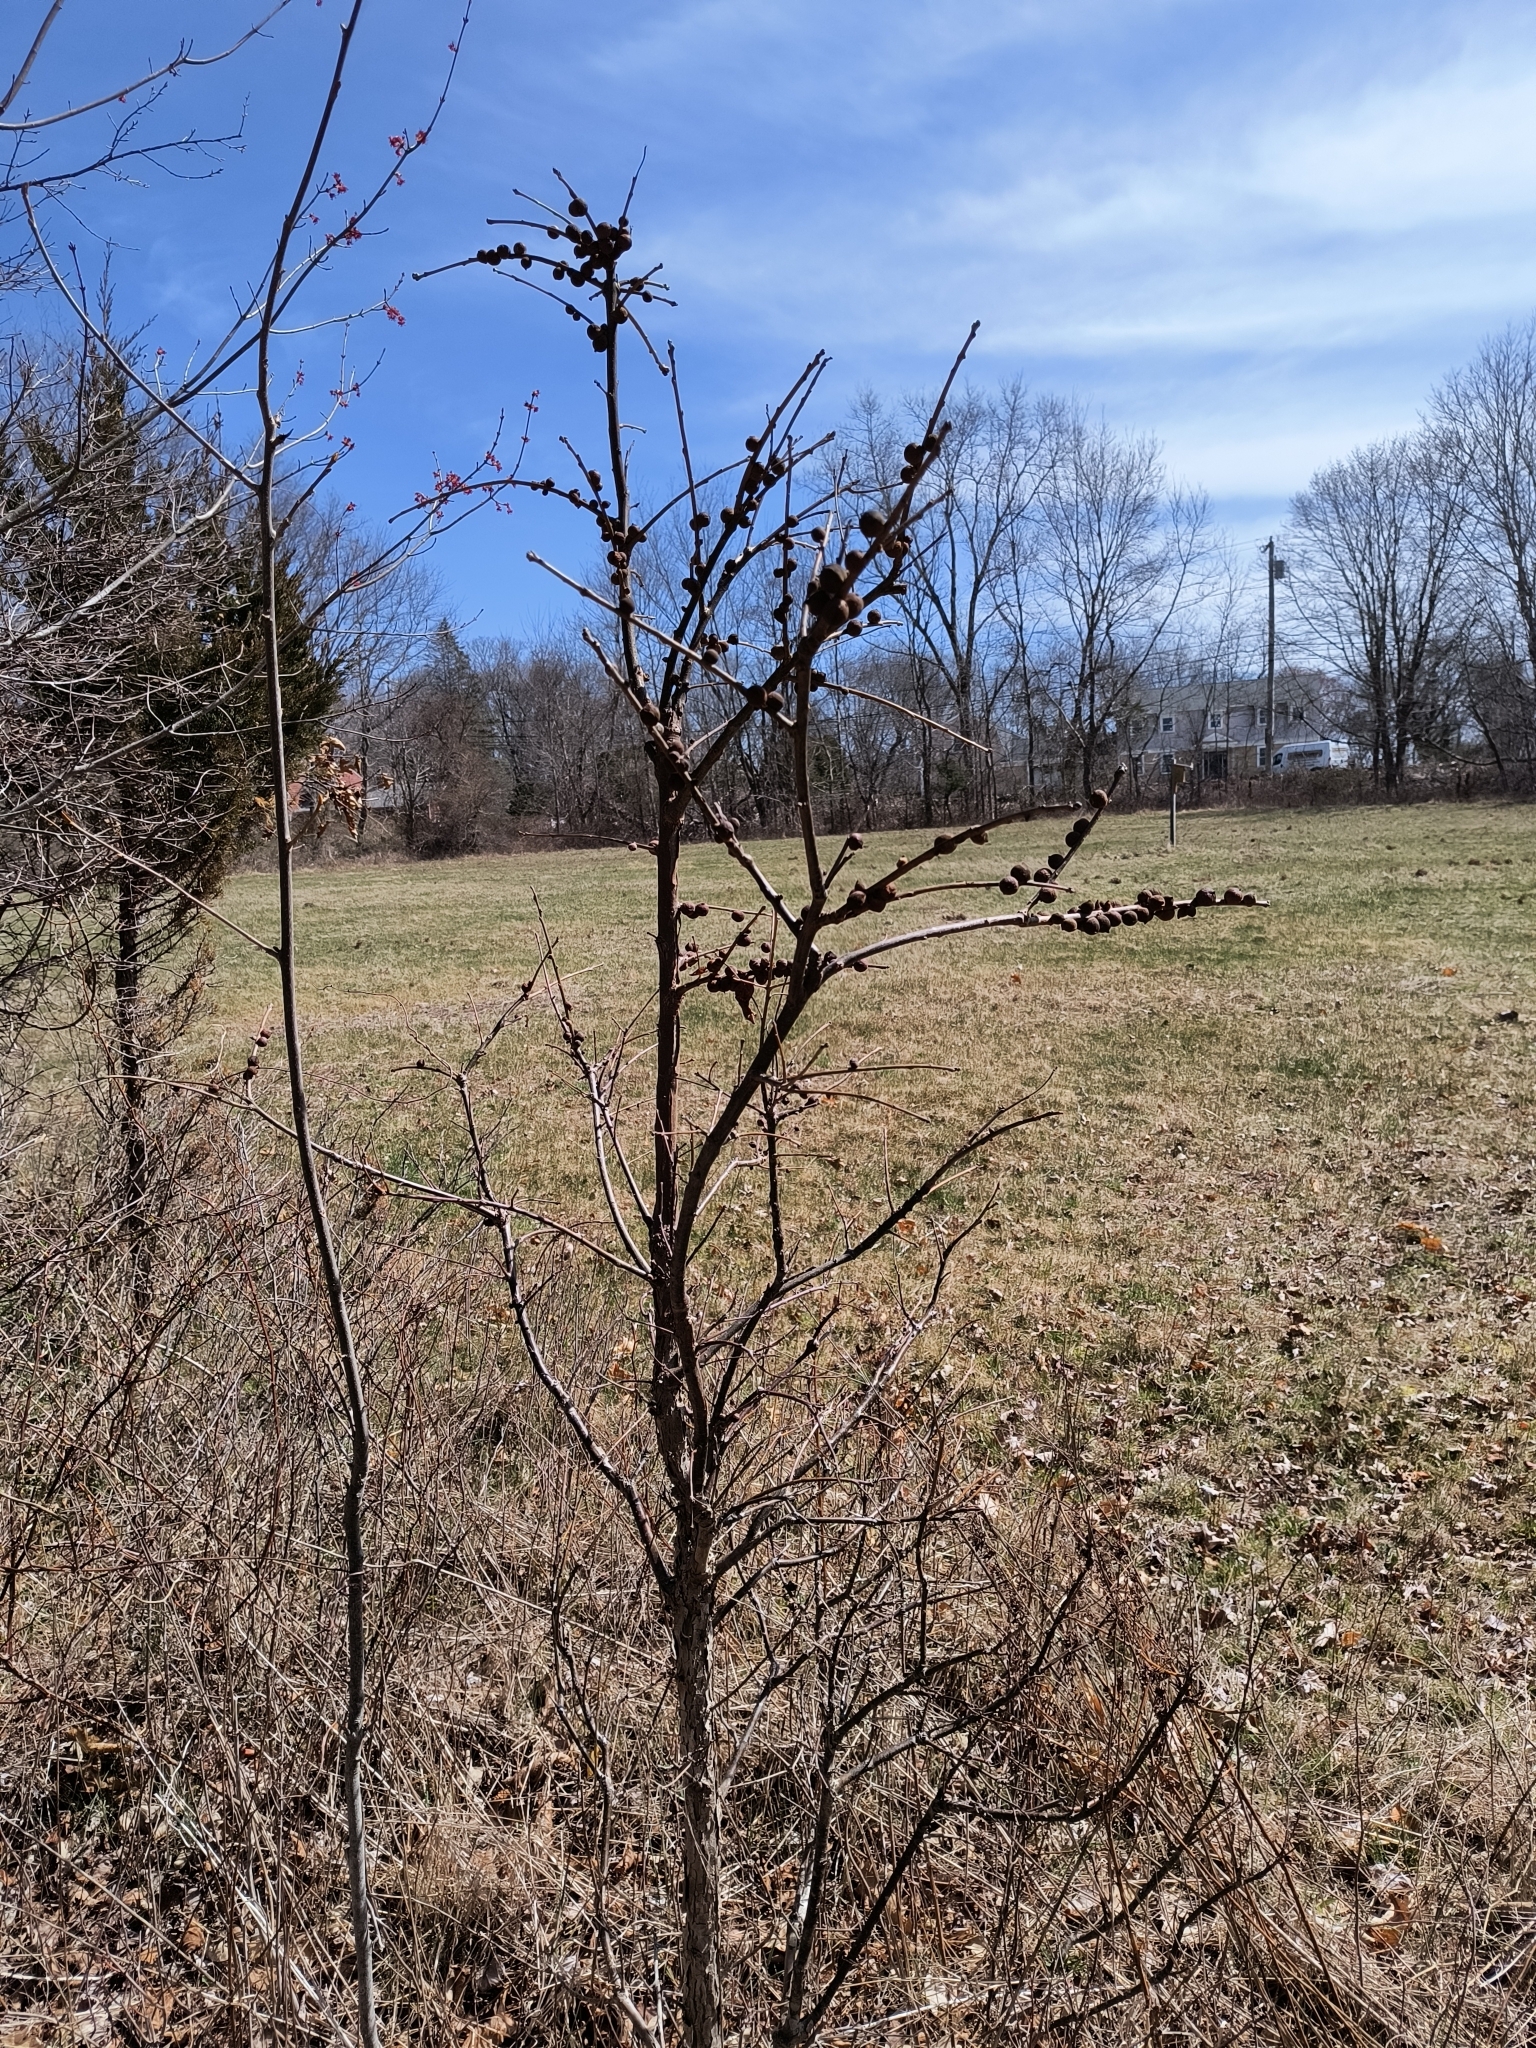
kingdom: Animalia
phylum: Arthropoda
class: Insecta
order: Hymenoptera
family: Cynipidae
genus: Disholcaspis
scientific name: Disholcaspis
